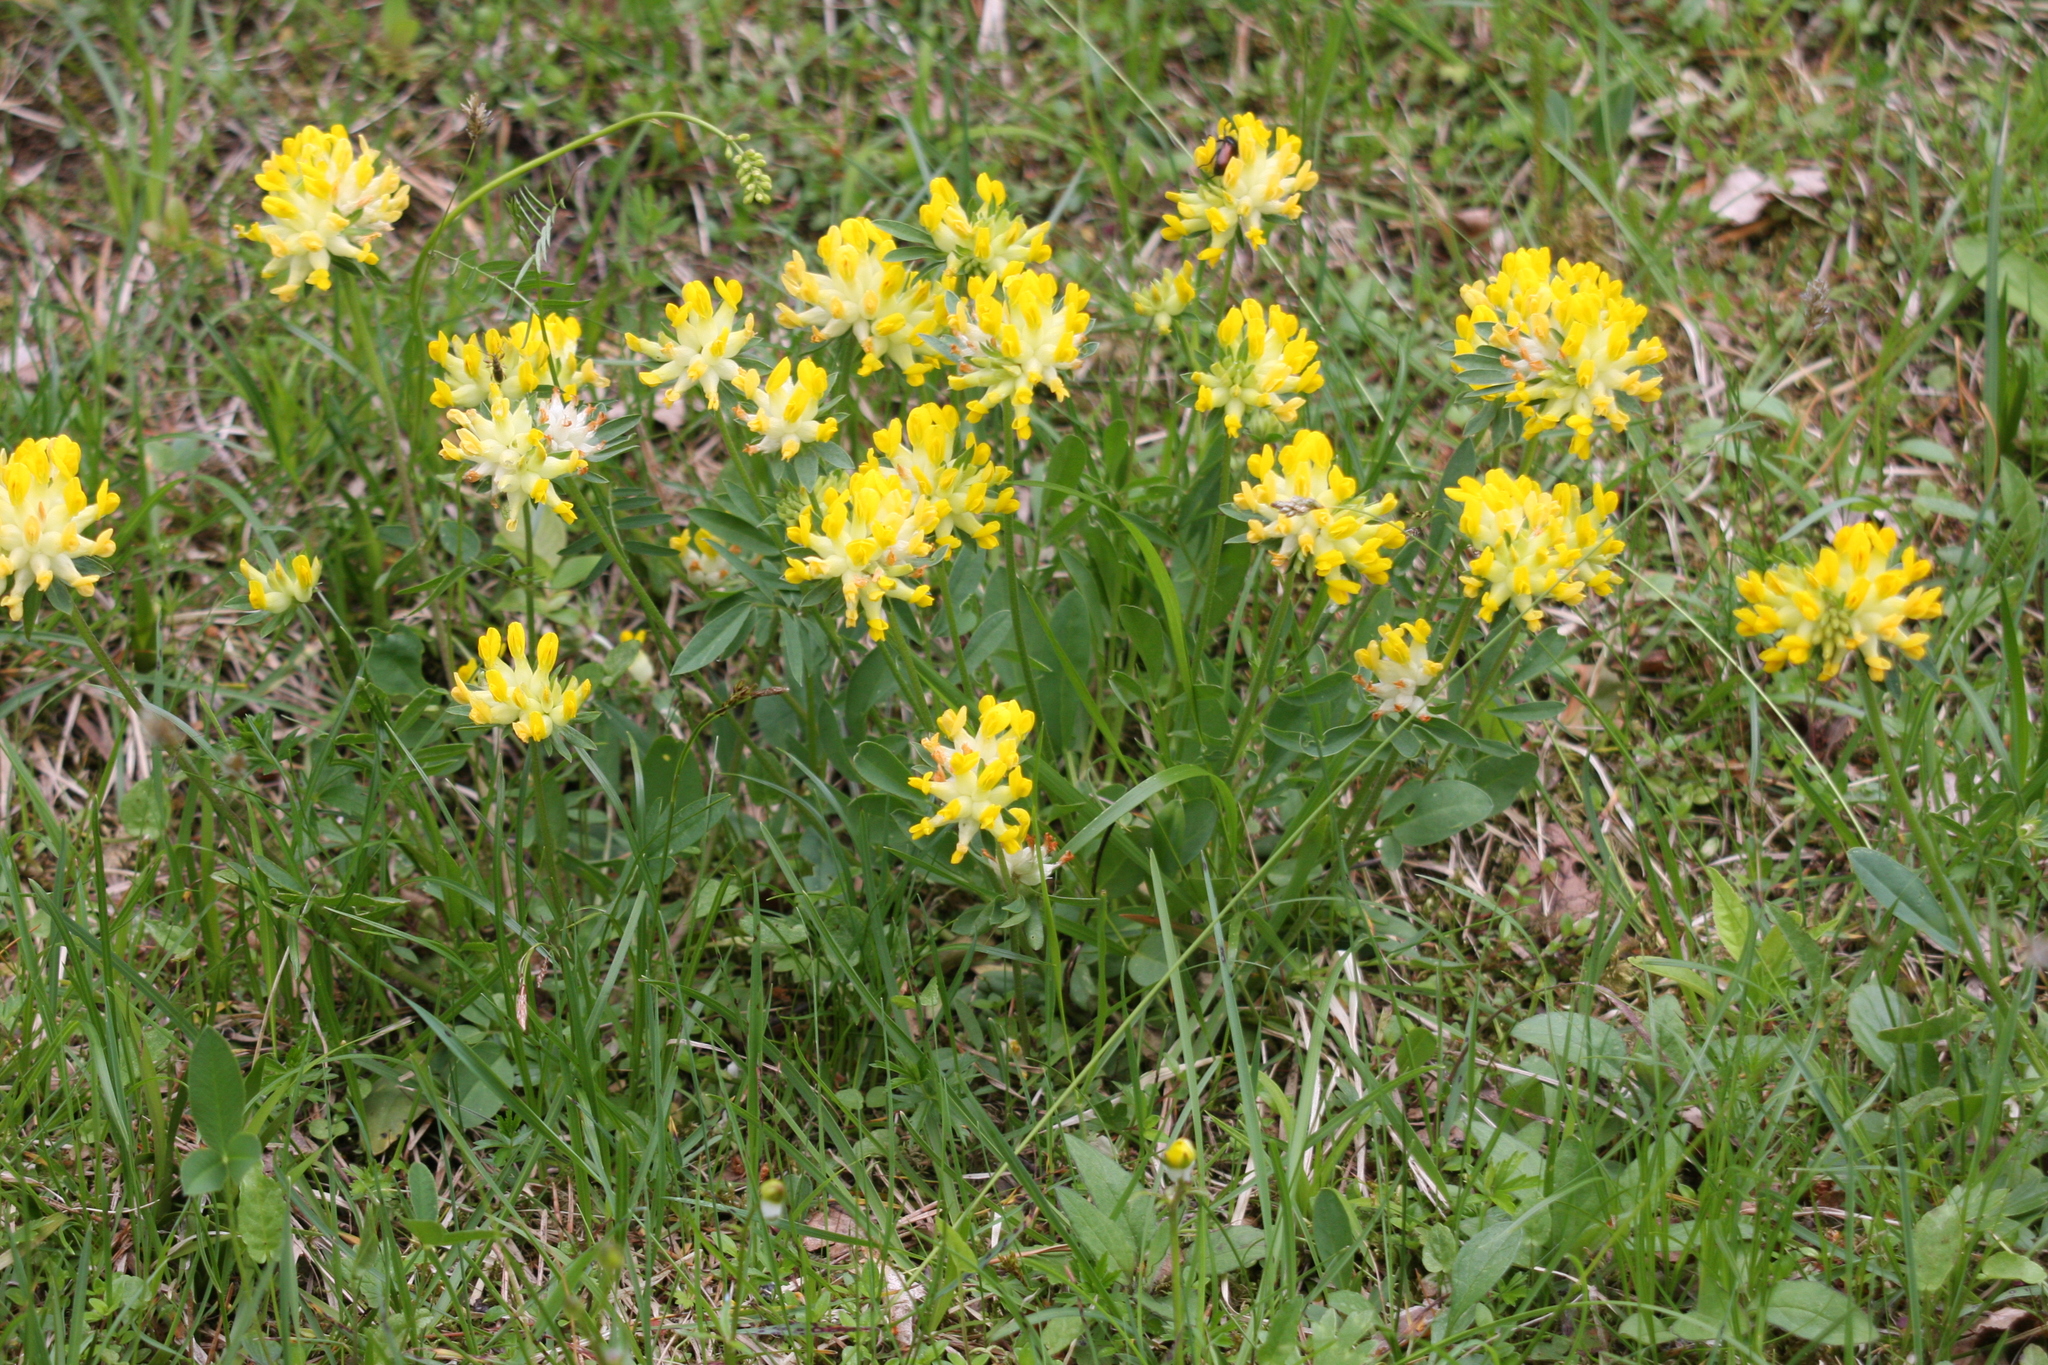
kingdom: Plantae
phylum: Tracheophyta
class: Magnoliopsida
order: Fabales
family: Fabaceae
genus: Anthyllis
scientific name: Anthyllis vulneraria
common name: Kidney vetch
